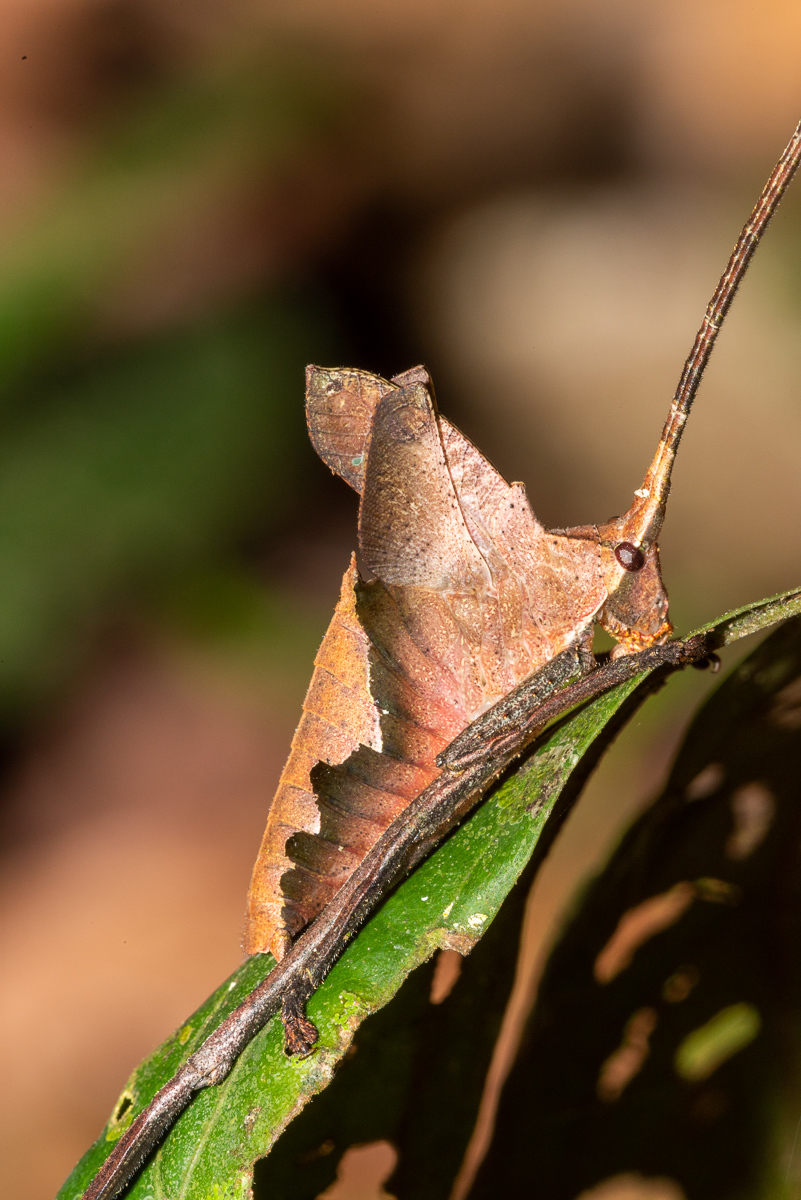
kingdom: Animalia
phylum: Arthropoda
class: Insecta
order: Orthoptera
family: Tettigoniidae
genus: Pterochroza
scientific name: Pterochroza ocellata
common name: Peacock katydid
